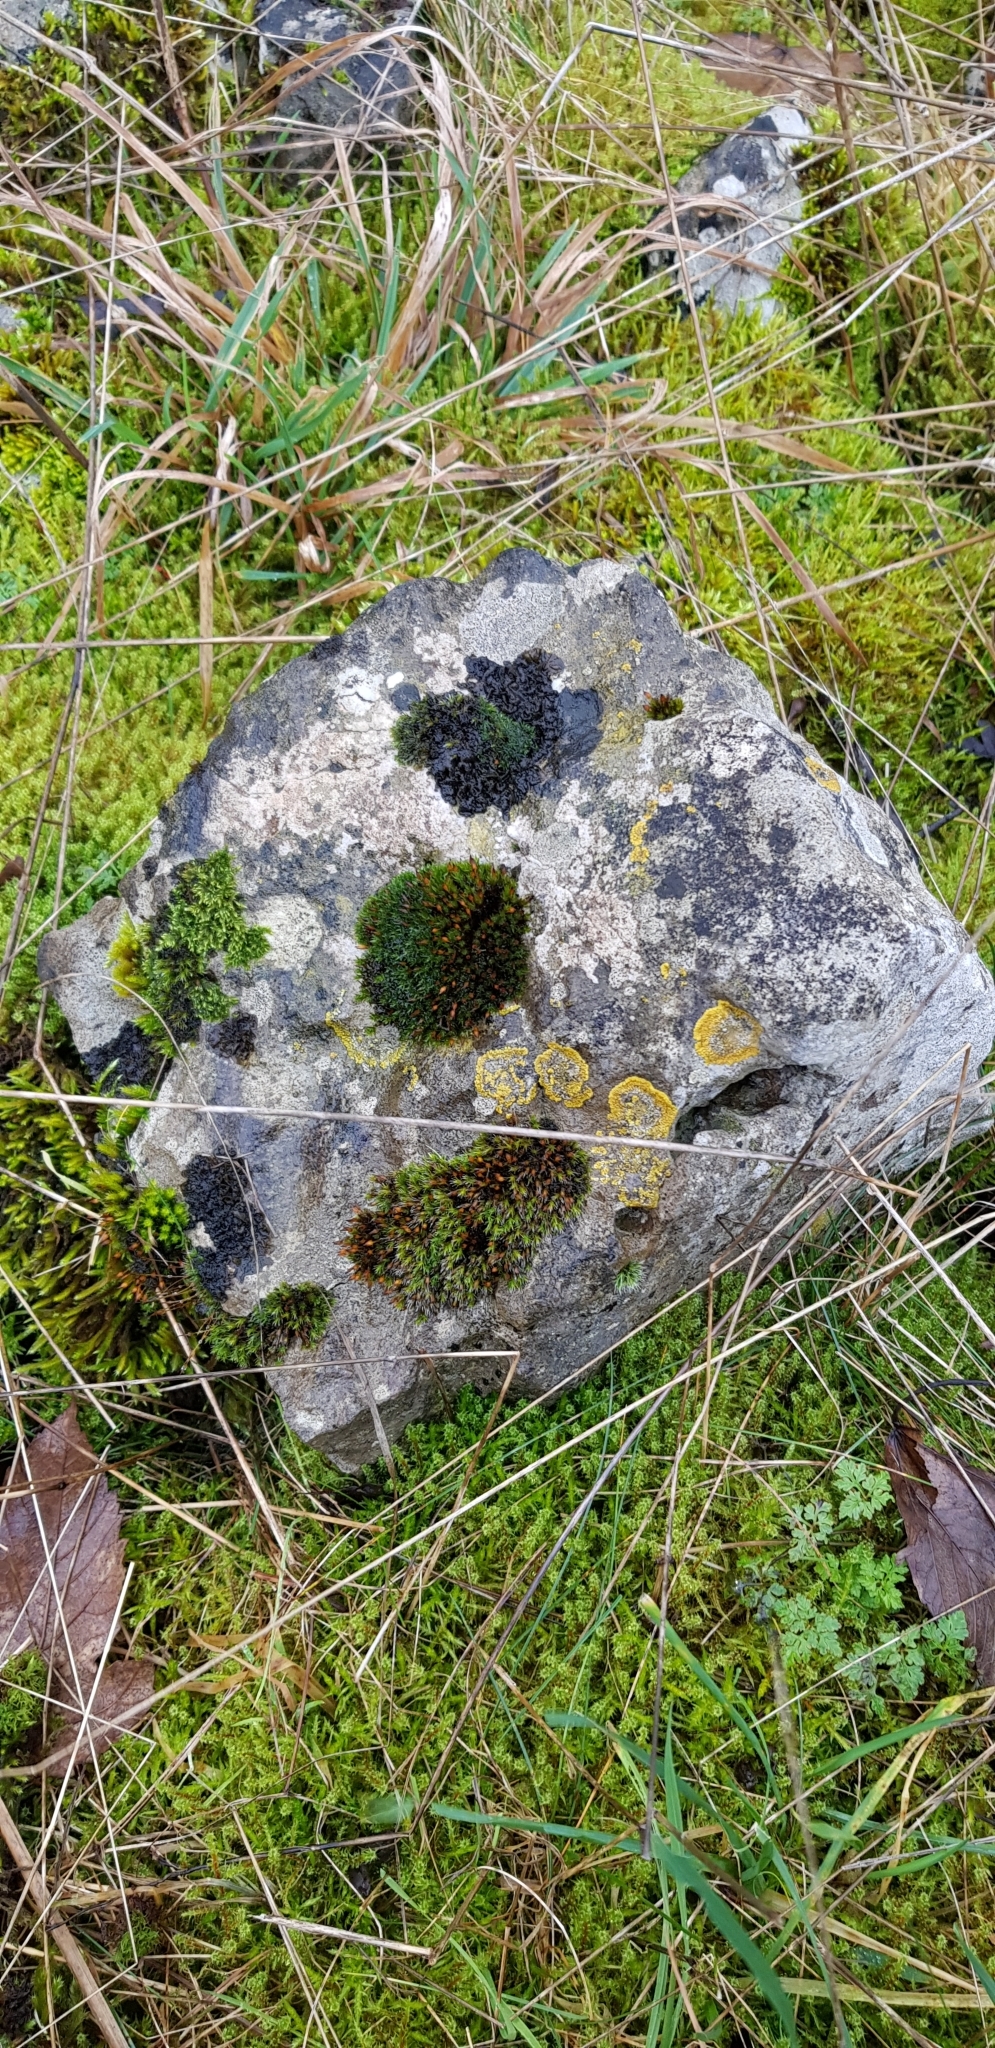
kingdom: Plantae
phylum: Bryophyta
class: Bryopsida
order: Orthotrichales
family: Orthotrichaceae
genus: Orthotrichum
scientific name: Orthotrichum anomalum
